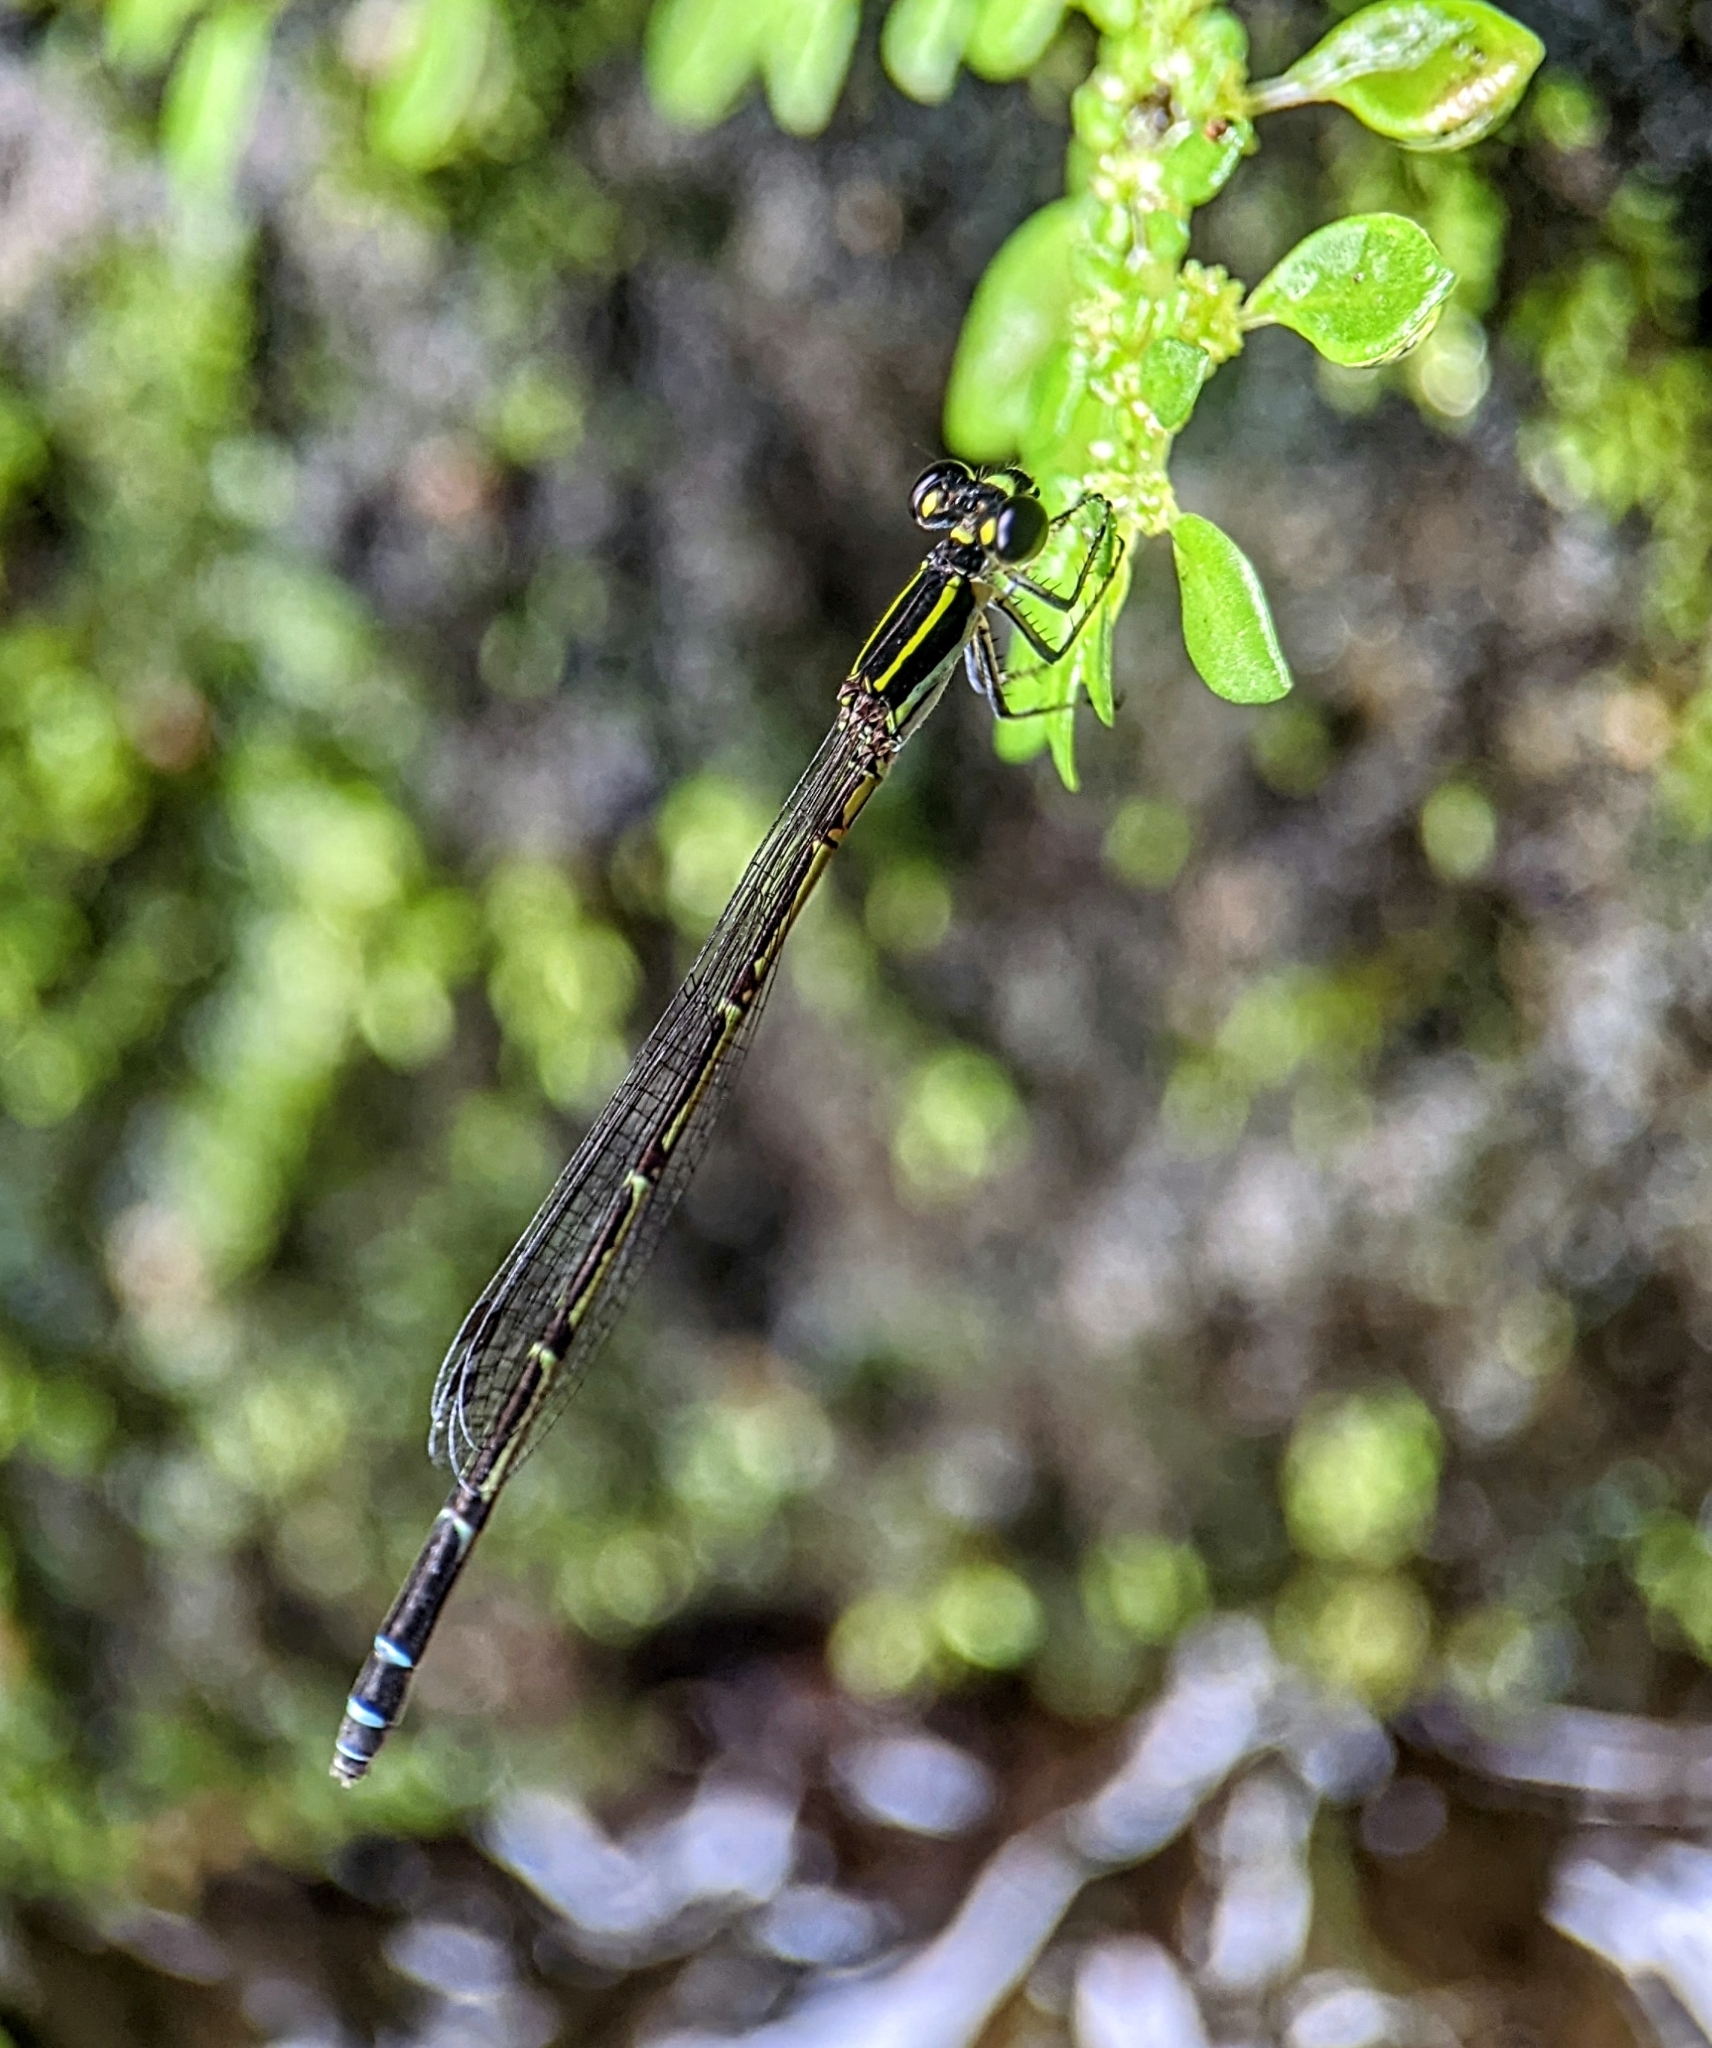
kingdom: Animalia
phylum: Arthropoda
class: Insecta
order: Odonata
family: Coenagrionidae
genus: Mortonagrion
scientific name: Mortonagrion aborense
